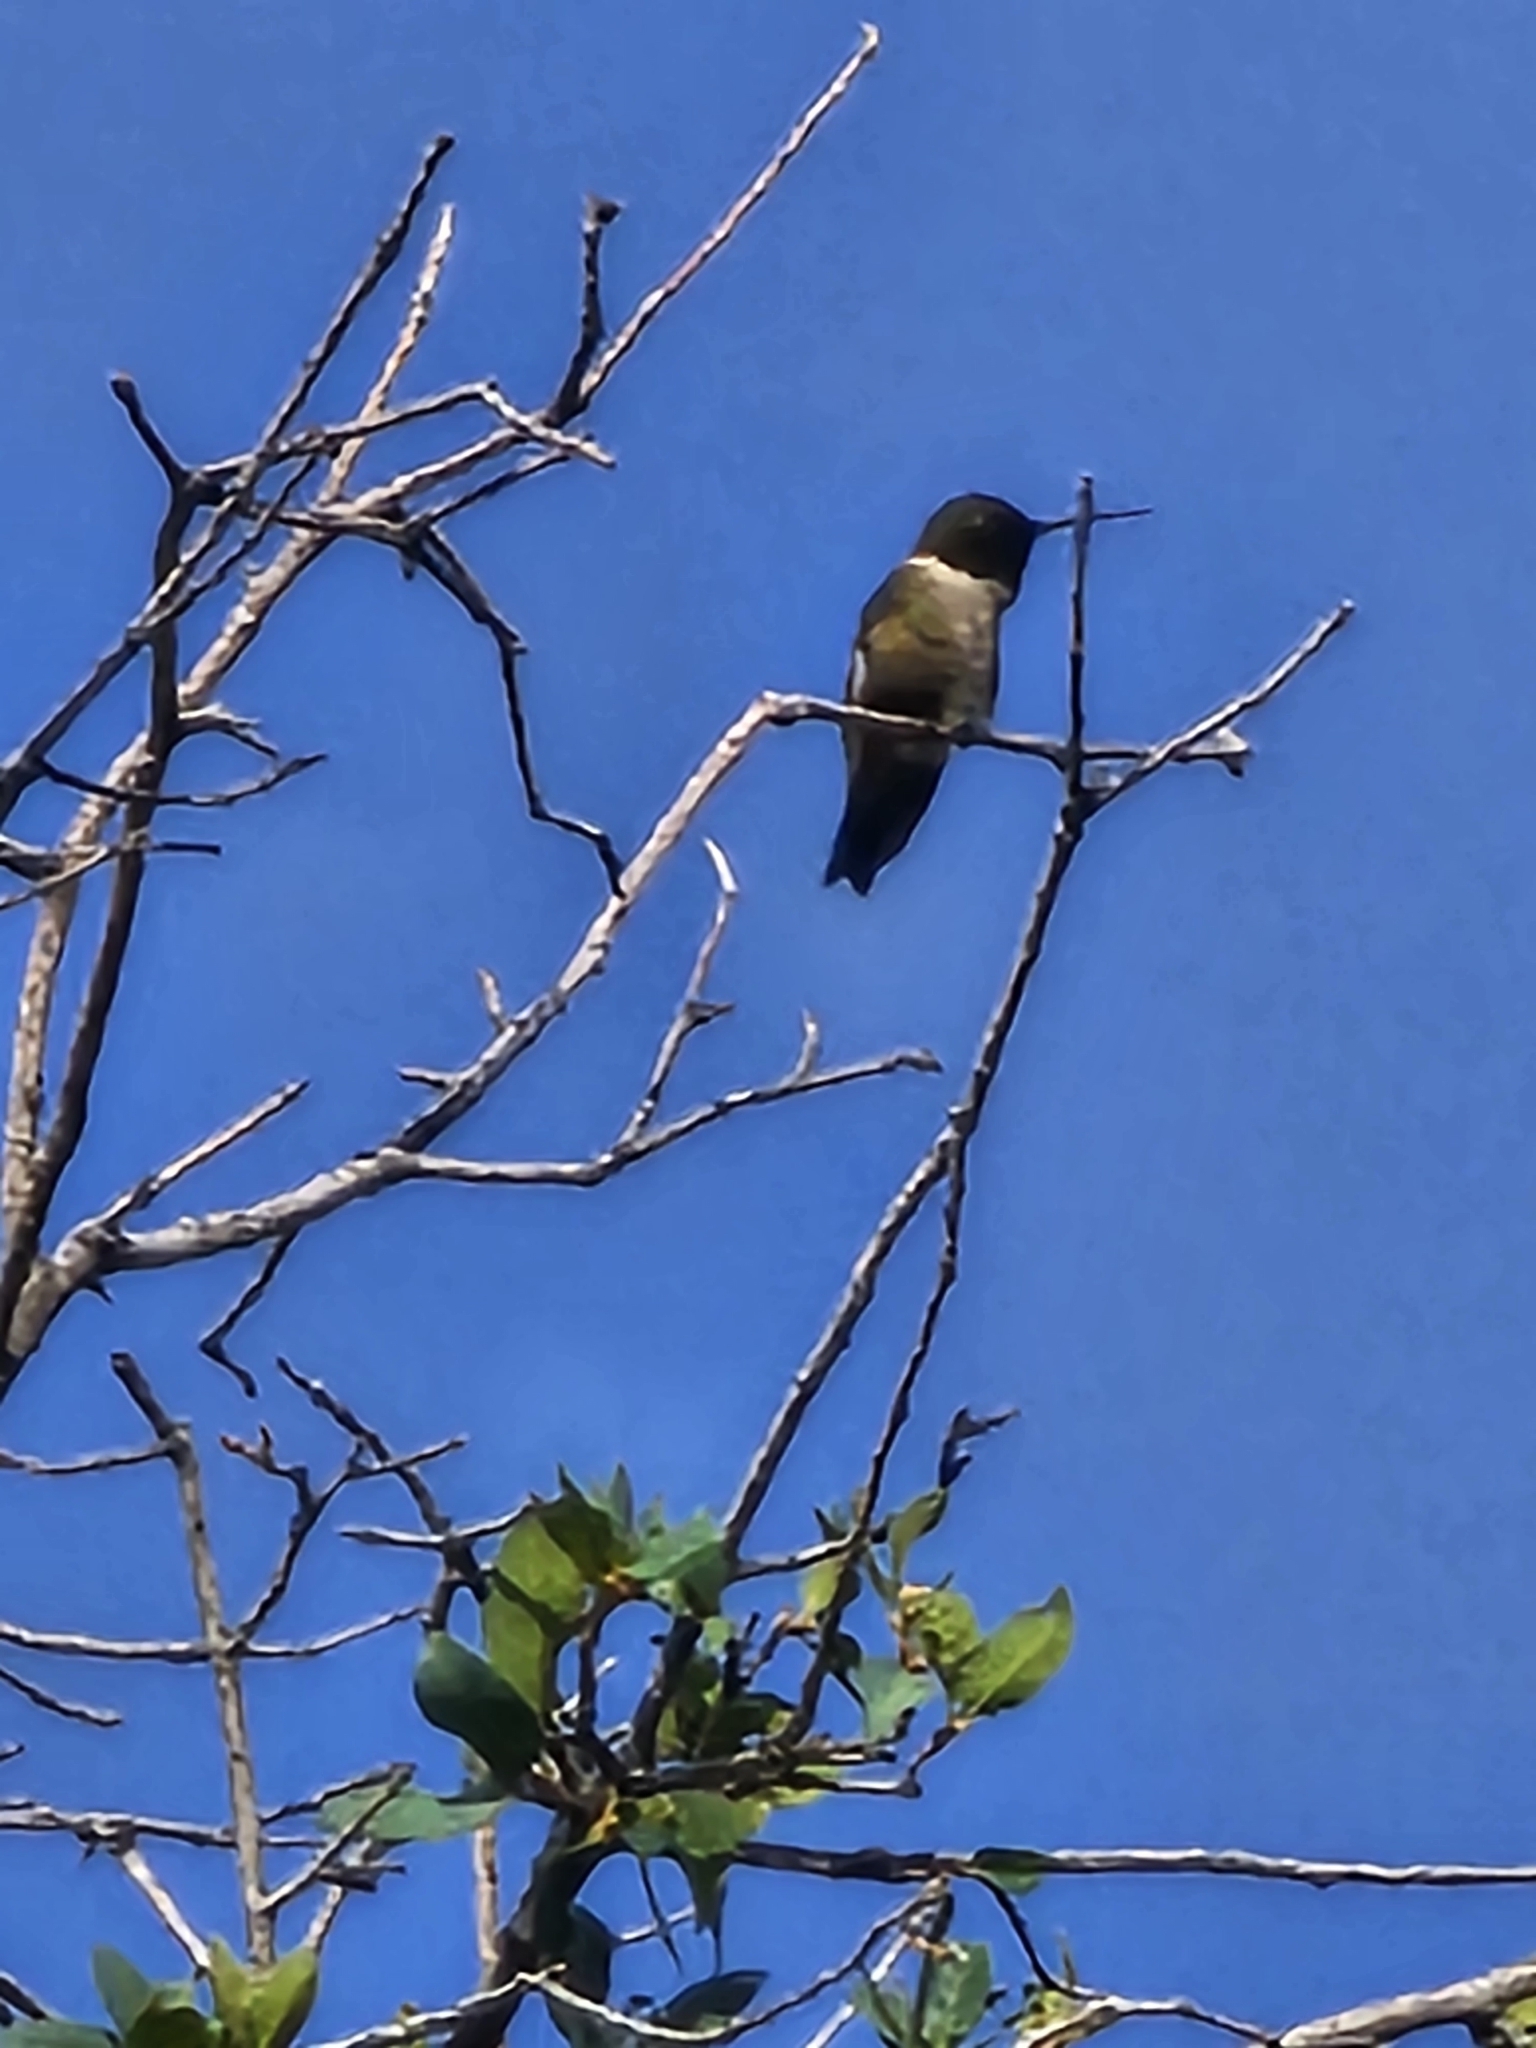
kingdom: Animalia
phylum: Chordata
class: Aves
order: Apodiformes
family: Trochilidae
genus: Archilochus
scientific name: Archilochus alexandri
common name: Black-chinned hummingbird
